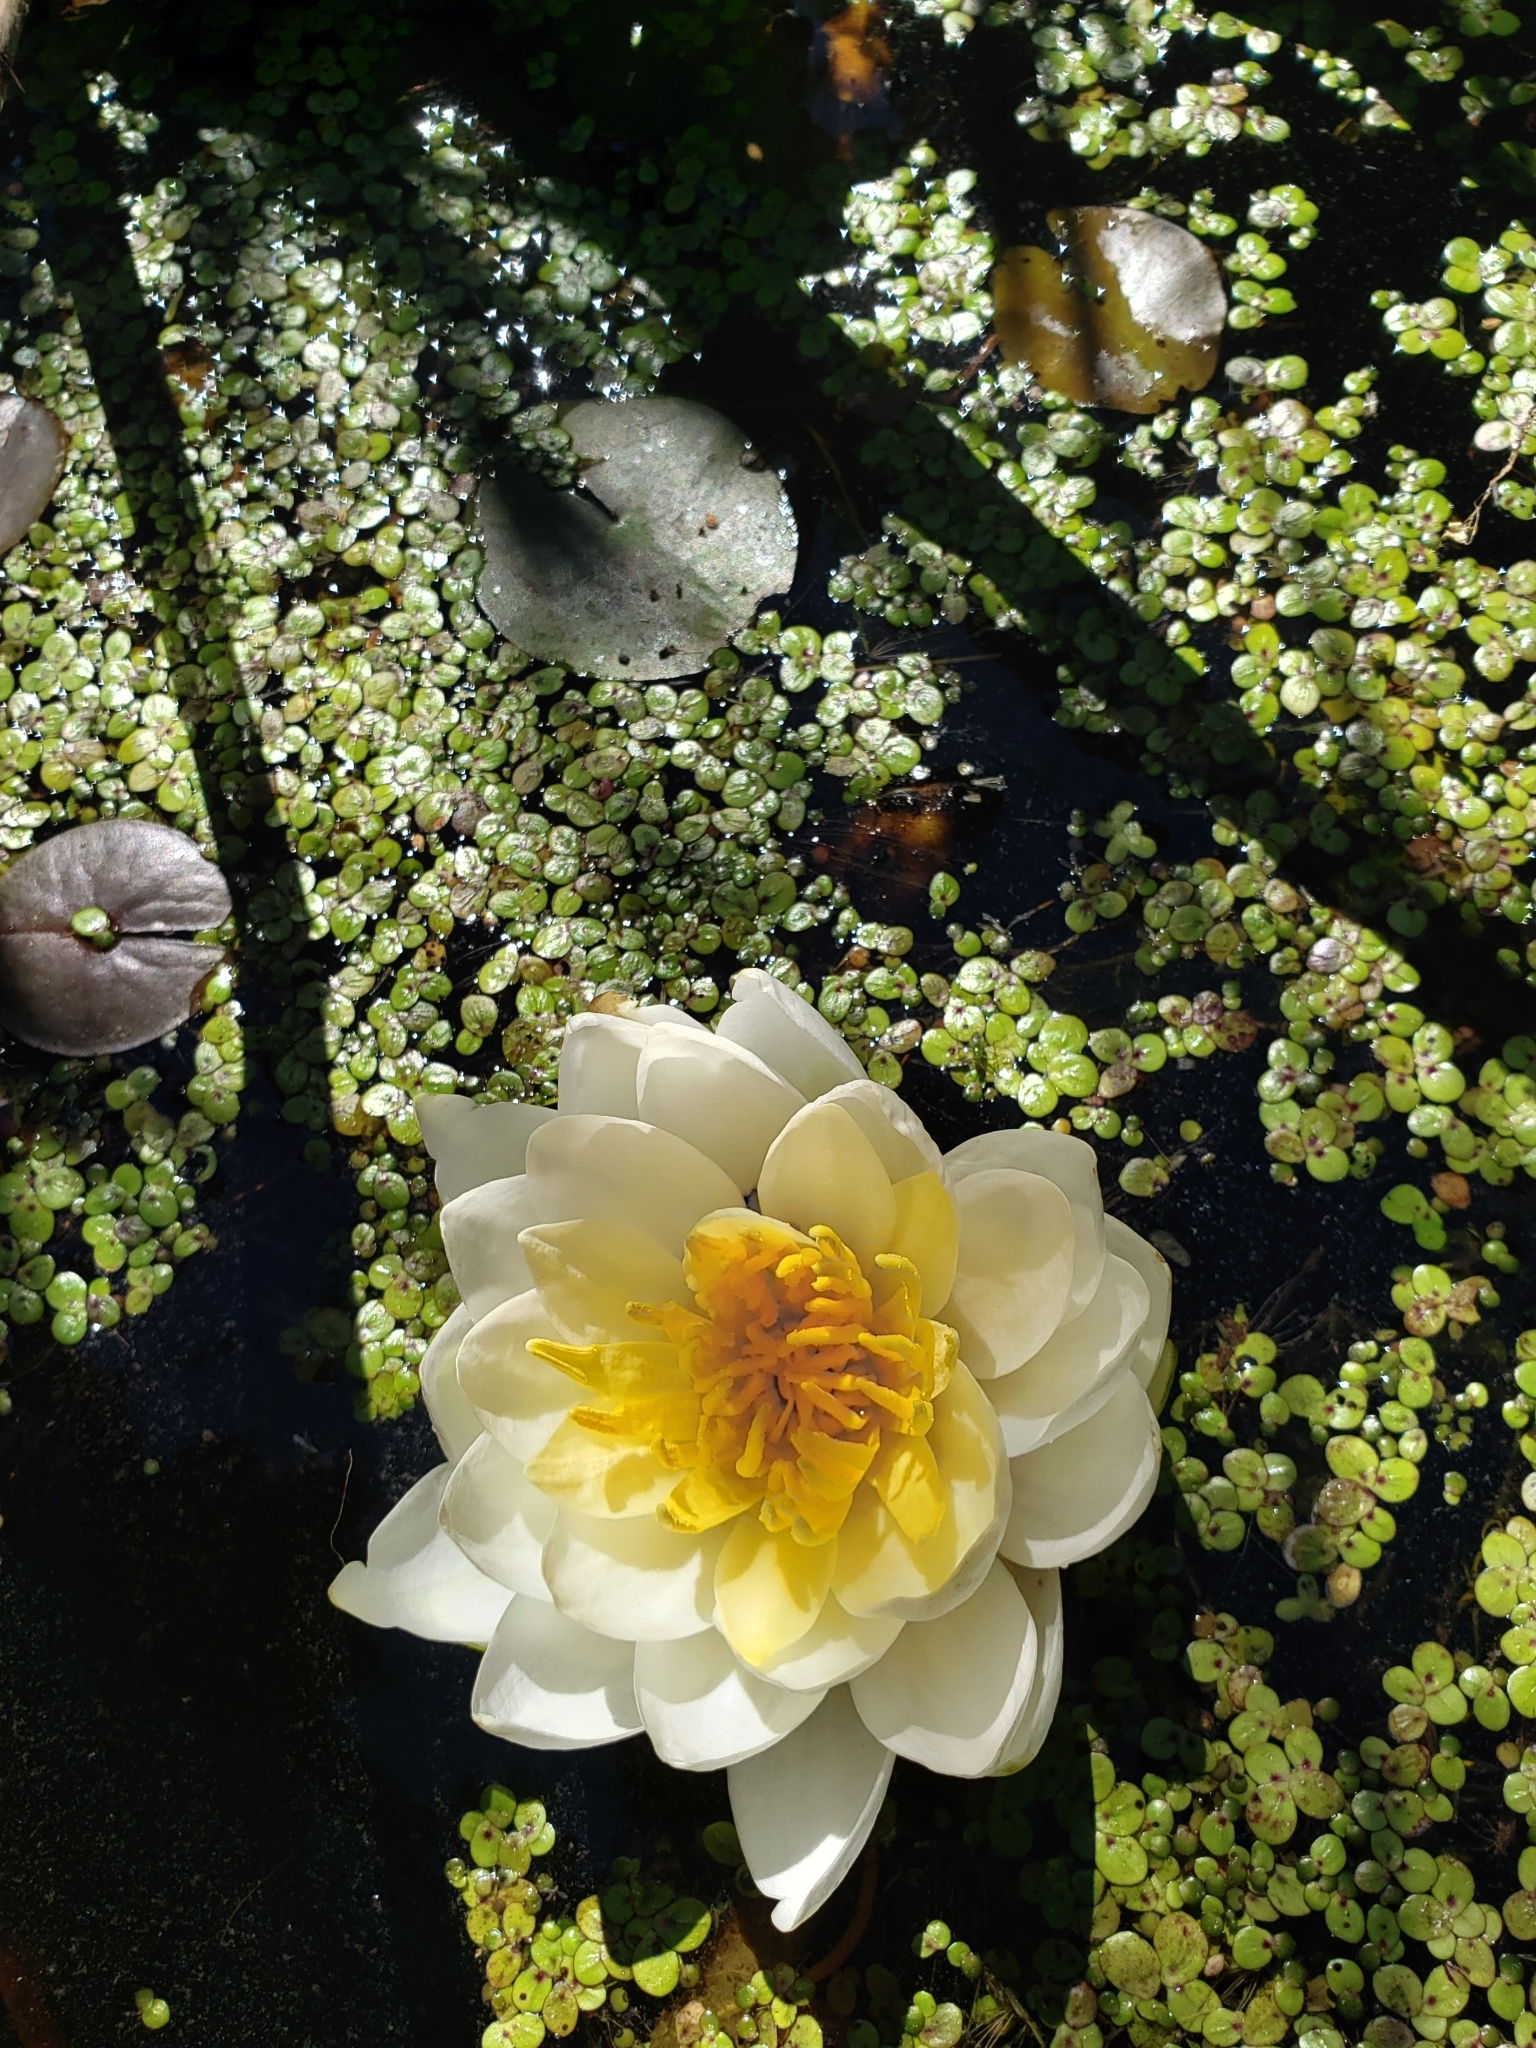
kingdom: Plantae
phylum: Tracheophyta
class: Magnoliopsida
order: Nymphaeales
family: Nymphaeaceae
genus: Nymphaea
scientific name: Nymphaea odorata
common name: Fragrant water-lily
